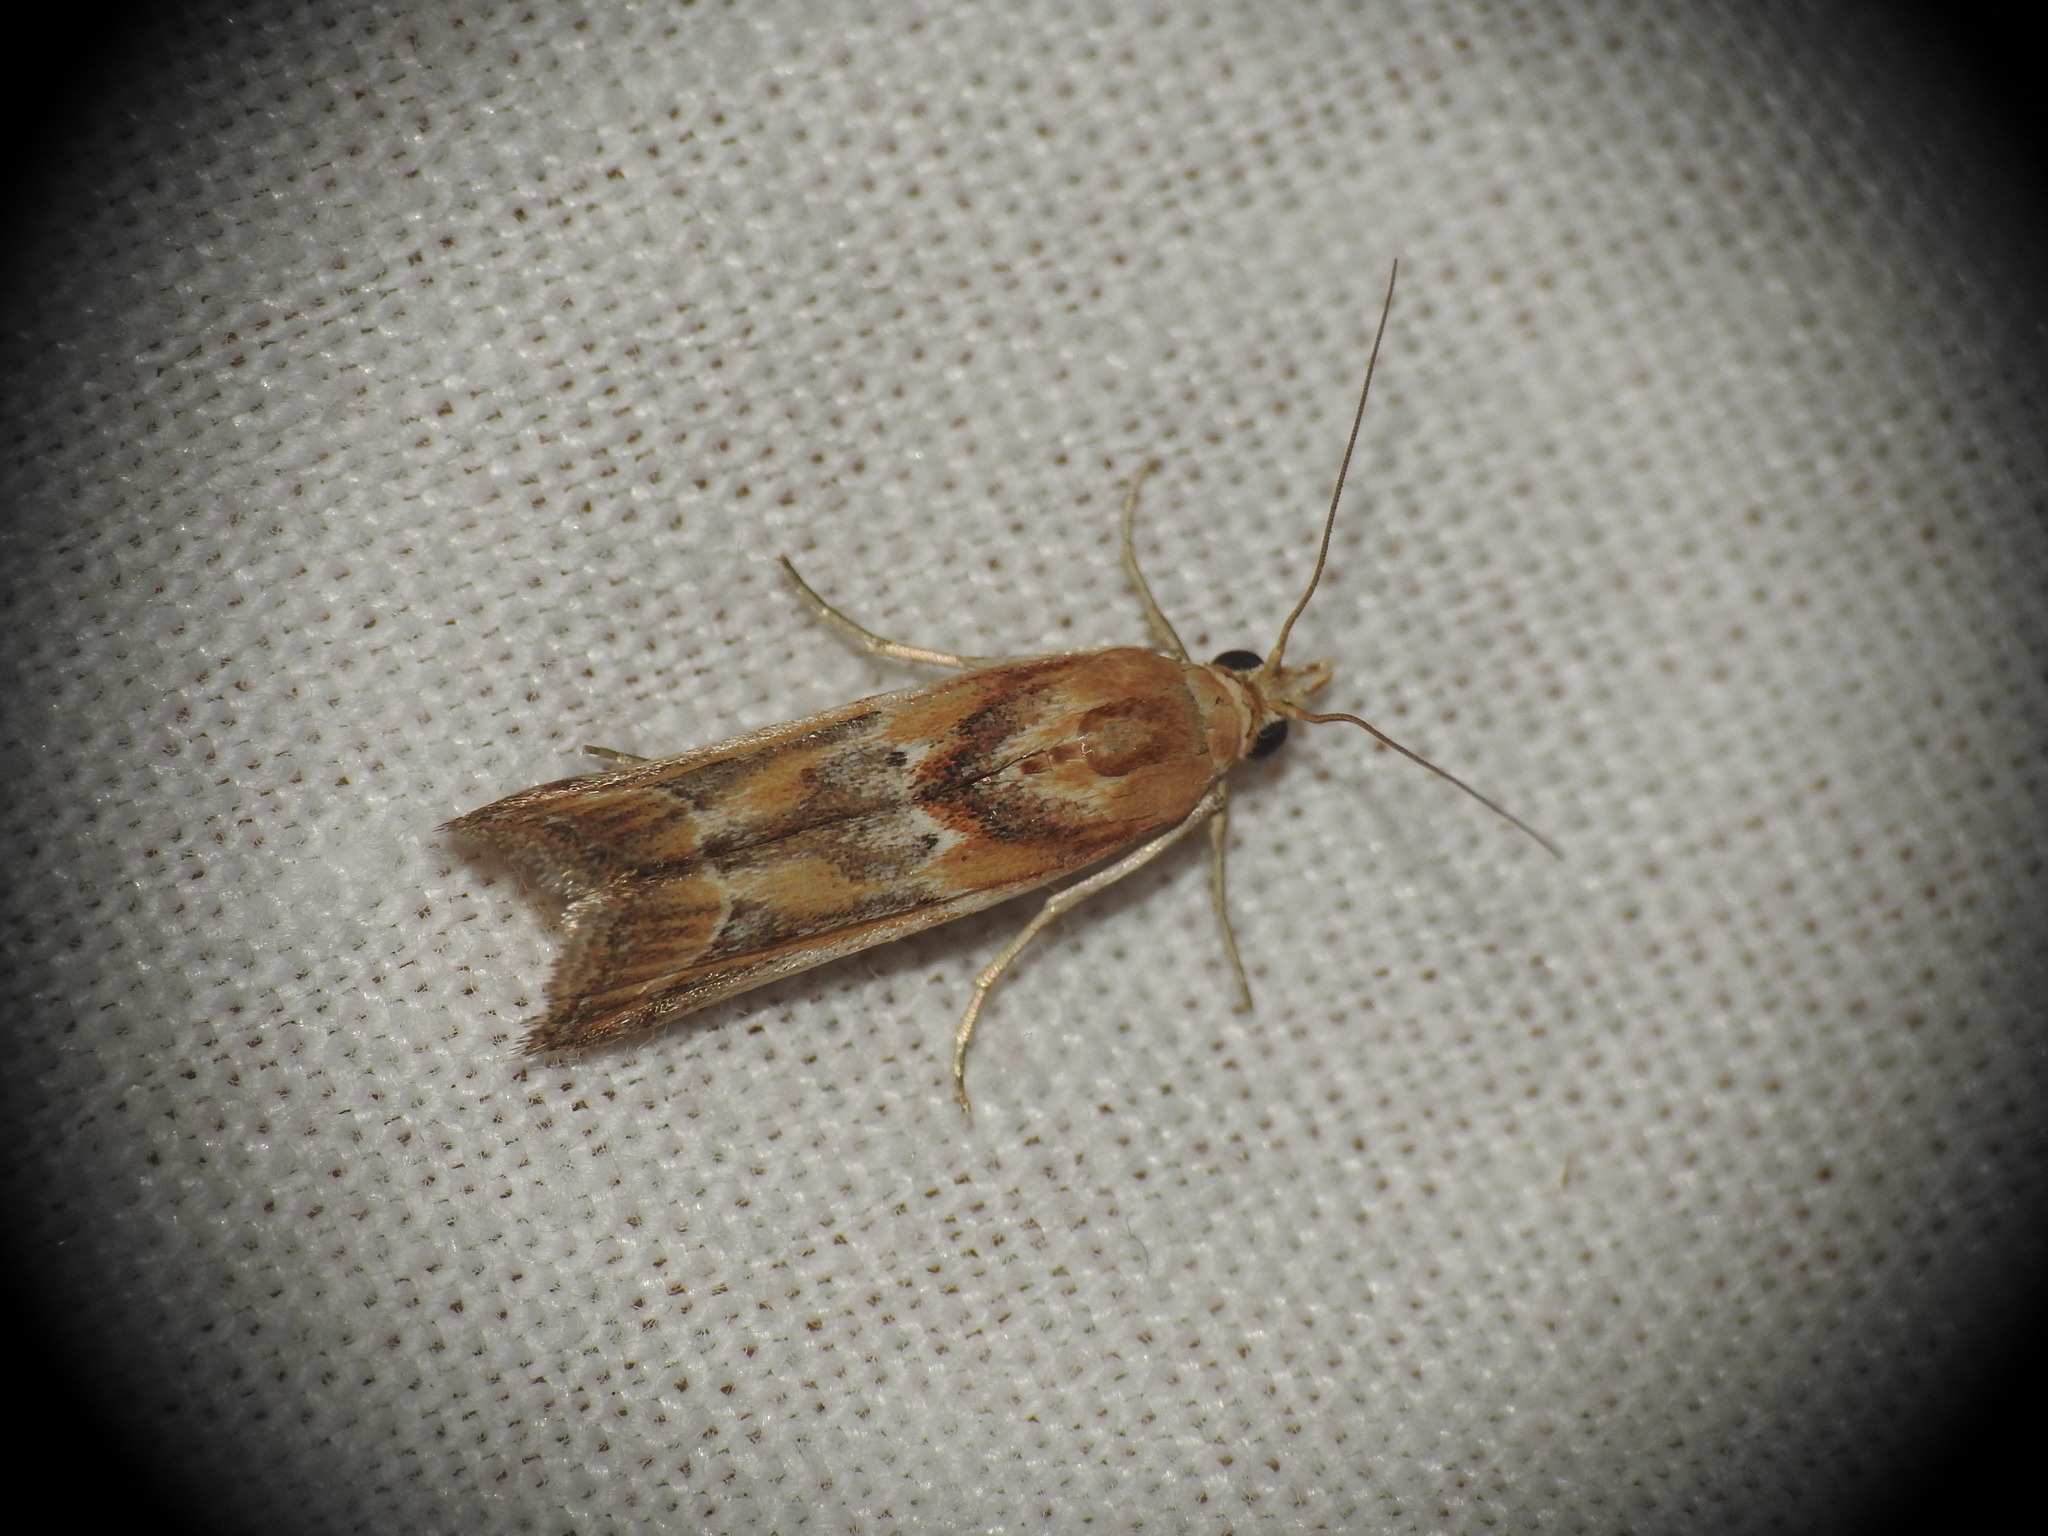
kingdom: Animalia
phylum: Arthropoda
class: Insecta
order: Lepidoptera
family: Pyralidae
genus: Ancylosis
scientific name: Ancylosis cinnamomella
